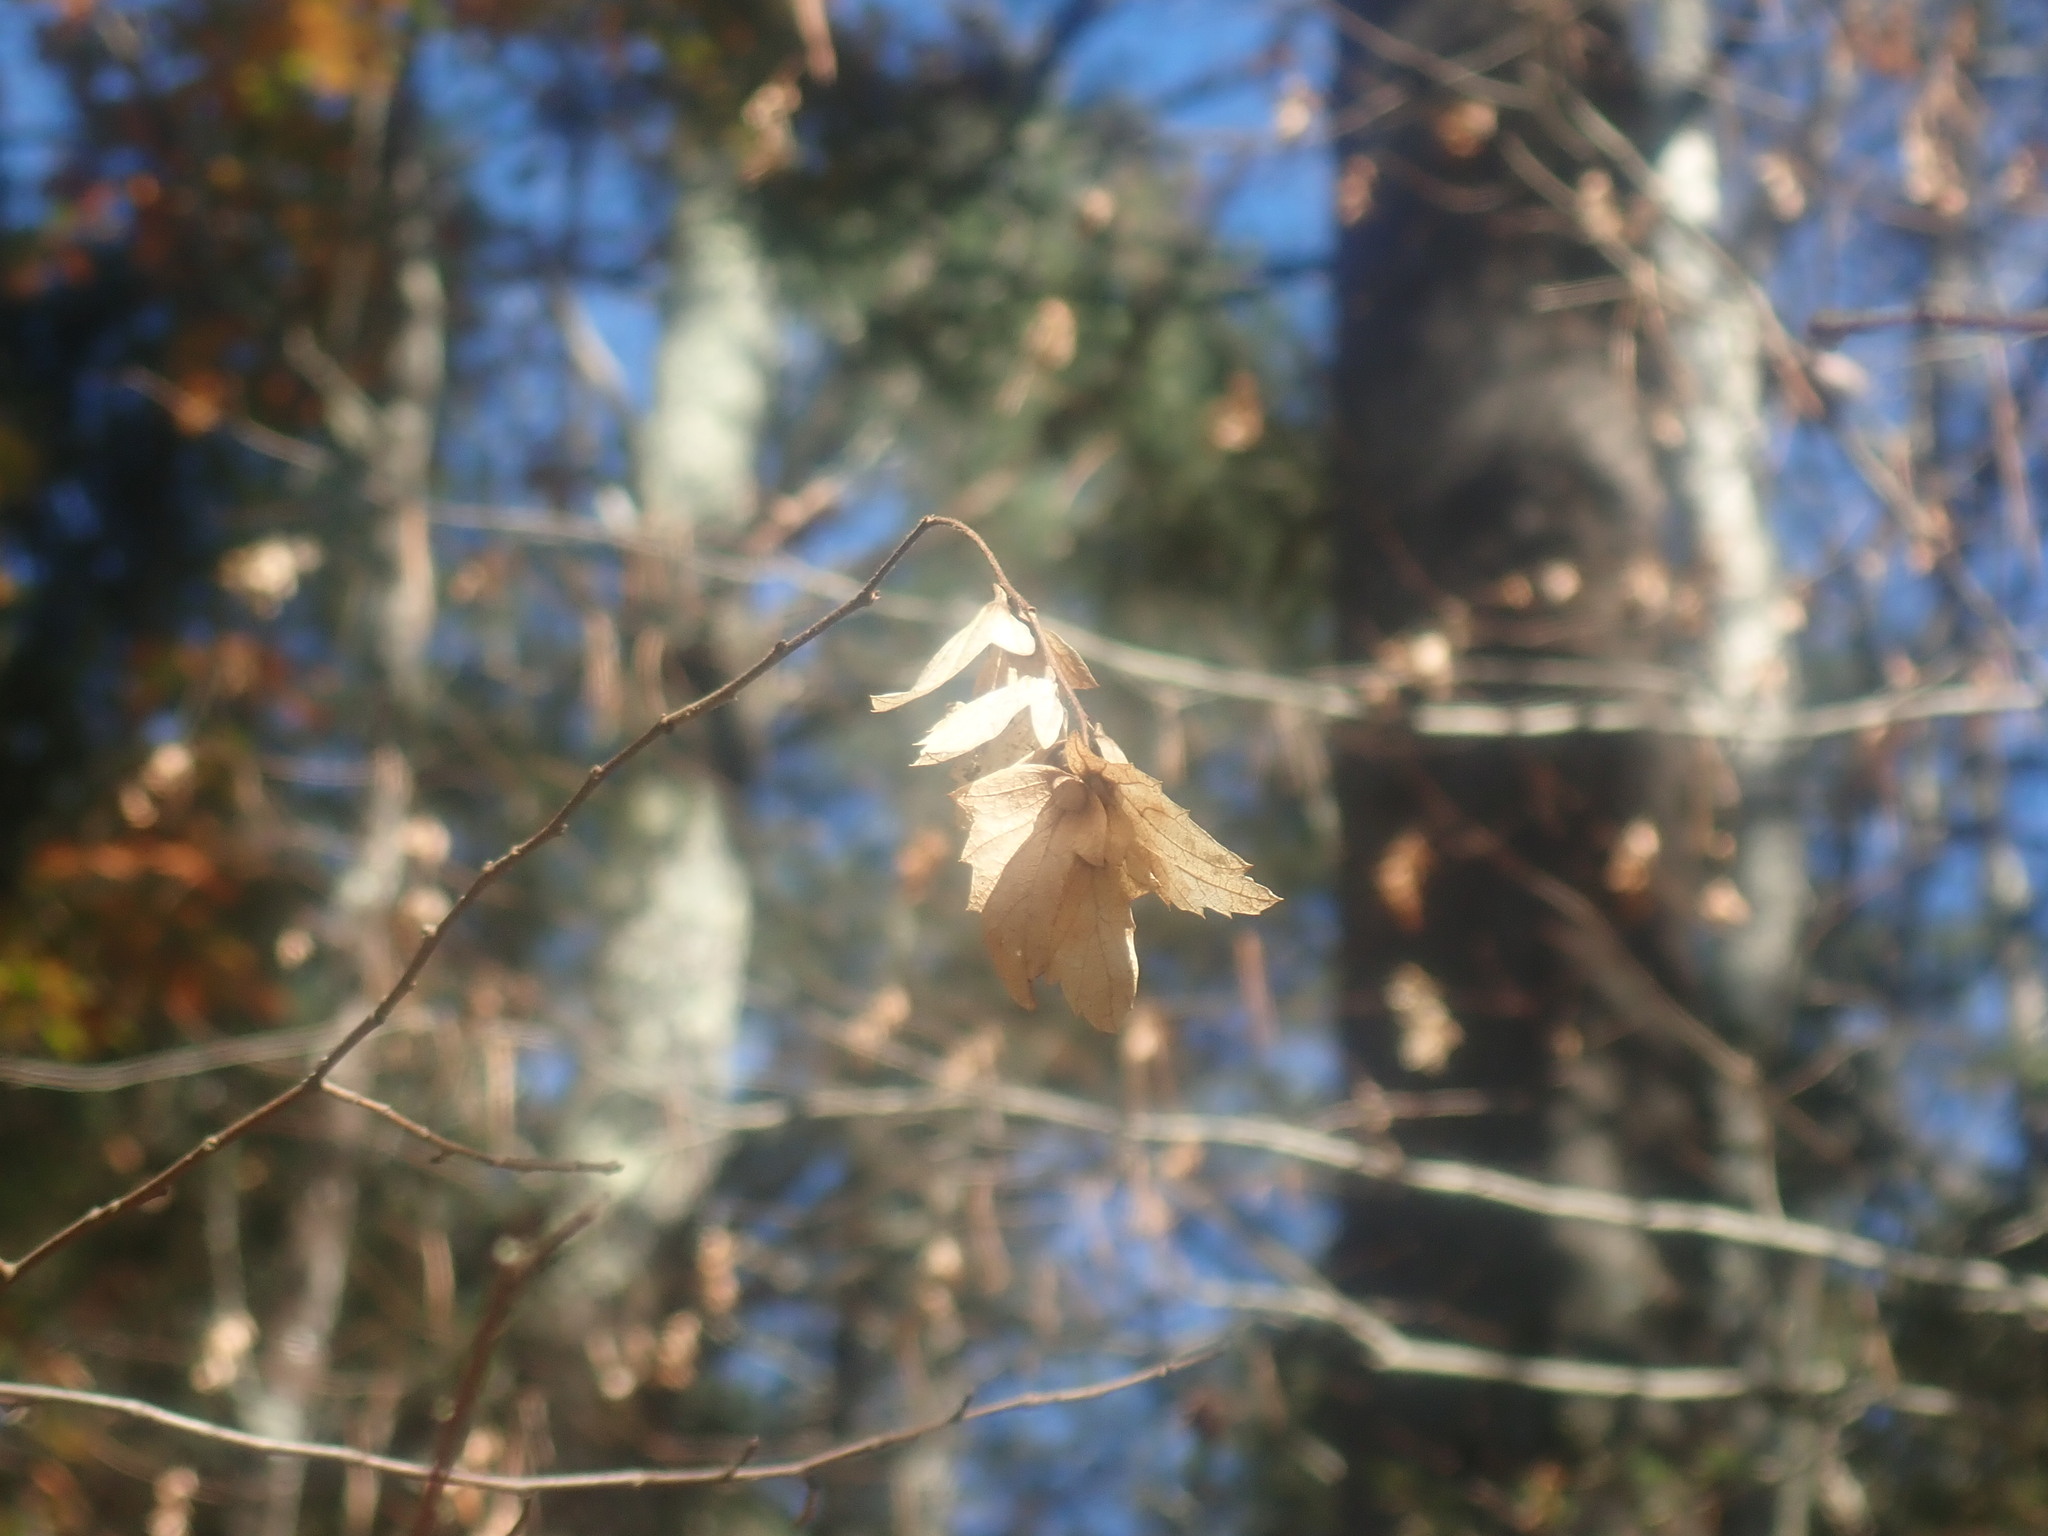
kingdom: Plantae
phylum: Tracheophyta
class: Magnoliopsida
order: Fagales
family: Betulaceae
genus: Carpinus
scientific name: Carpinus caroliniana
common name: American hornbeam
